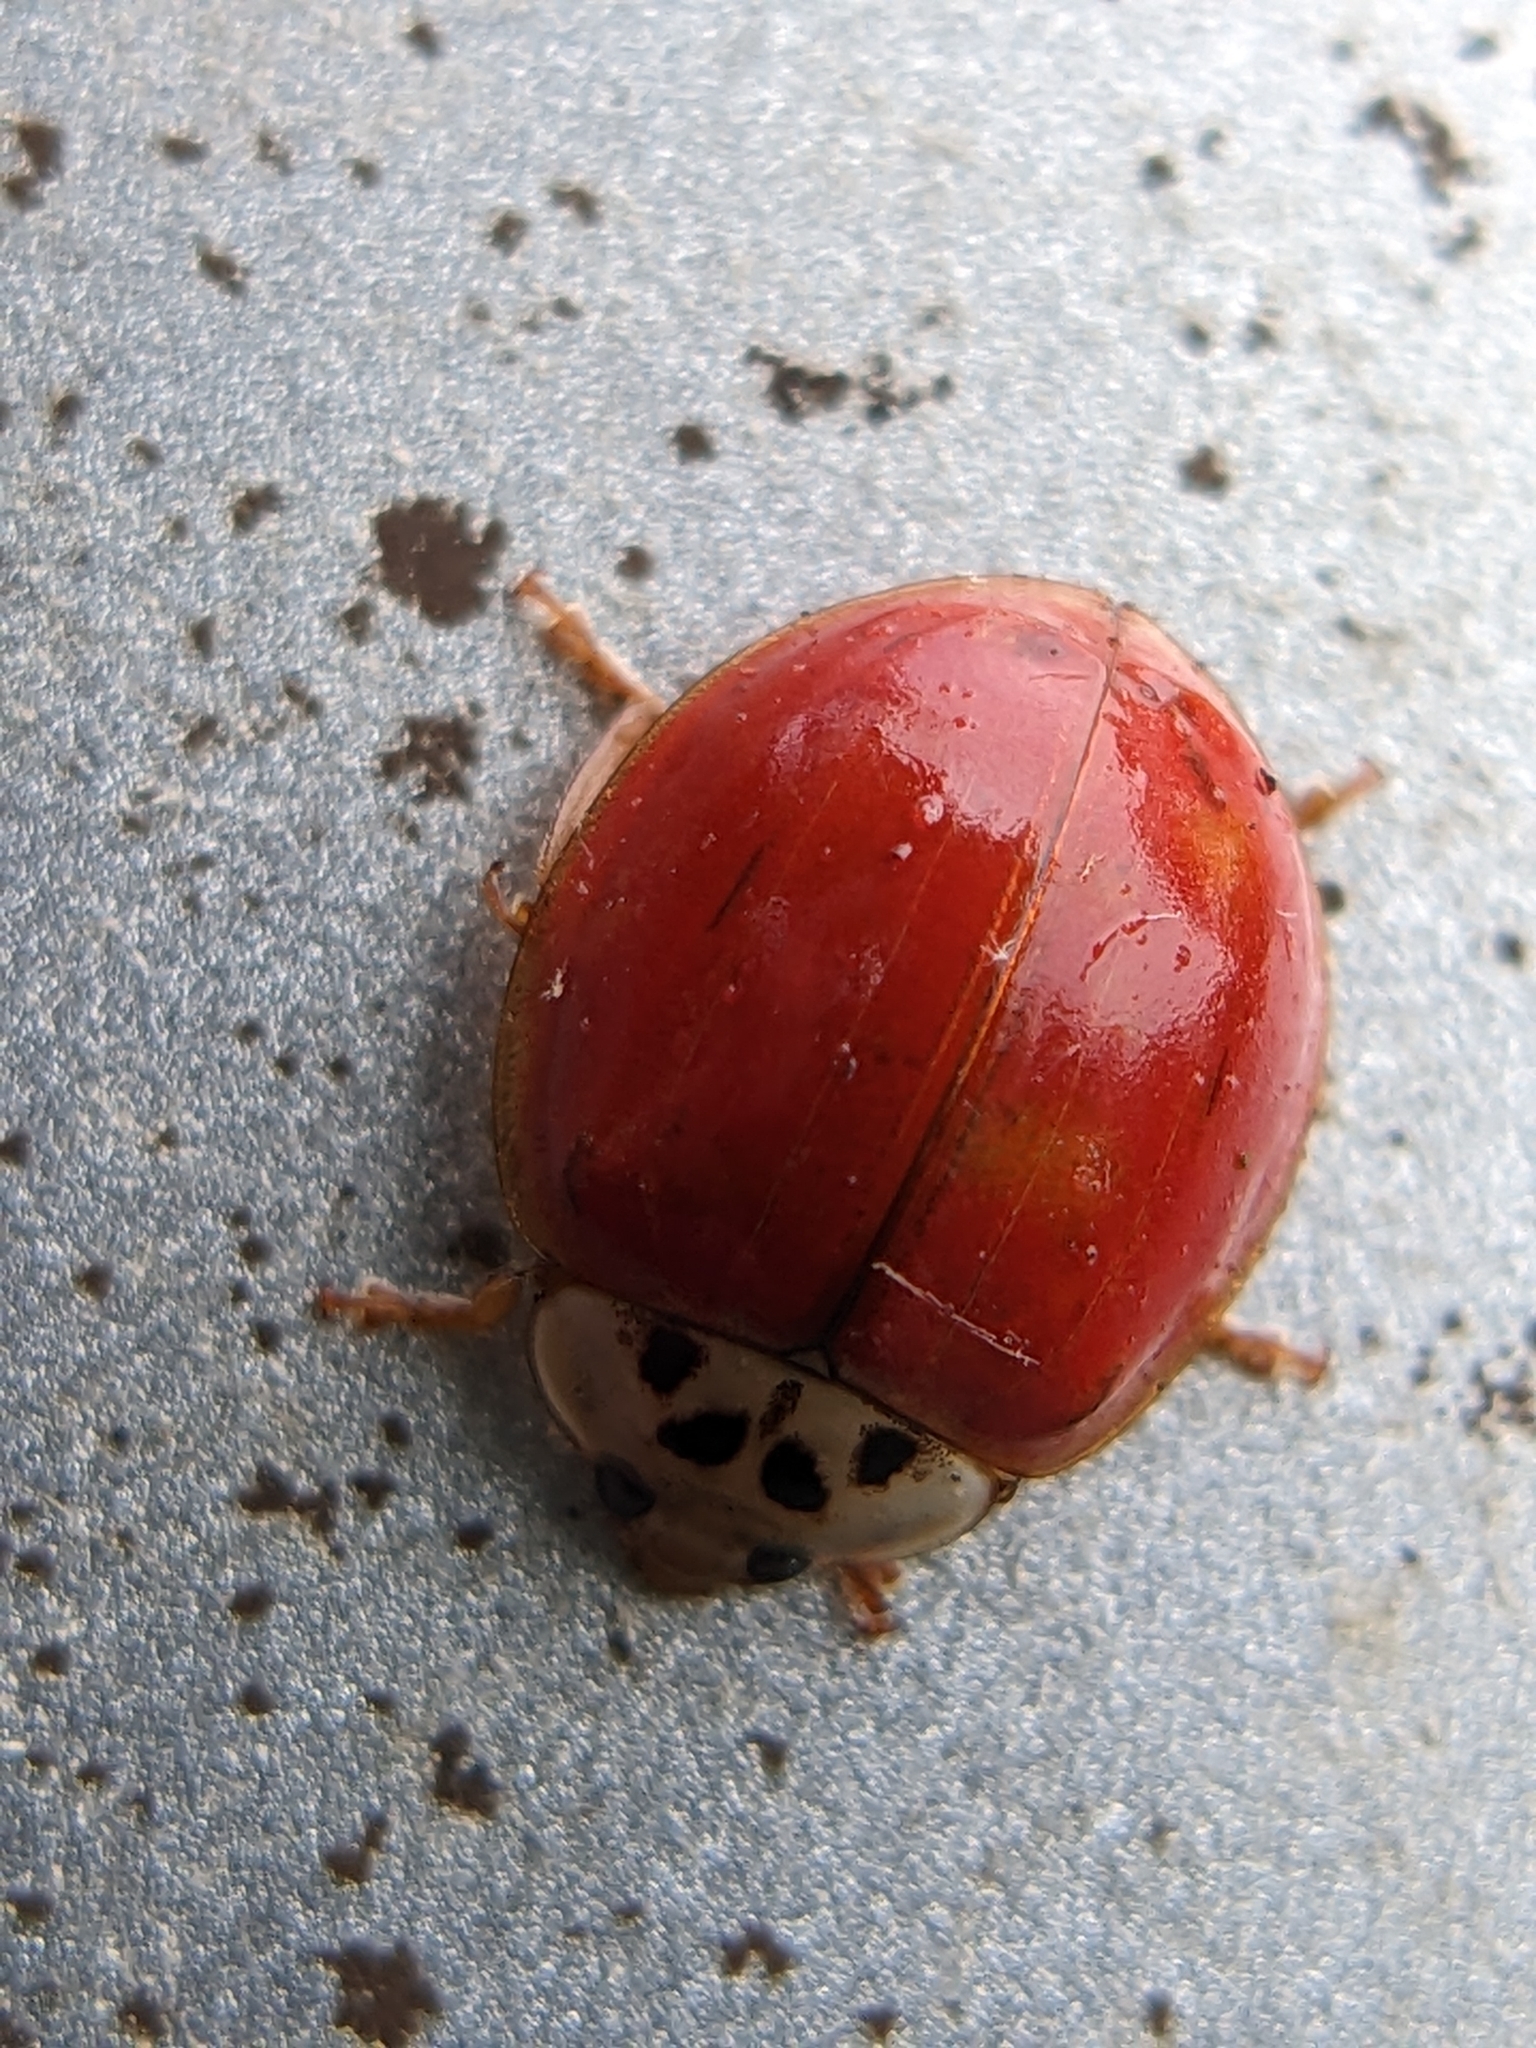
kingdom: Animalia
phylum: Arthropoda
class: Insecta
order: Coleoptera
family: Coccinellidae
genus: Harmonia
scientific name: Harmonia axyridis
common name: Harlequin ladybird
